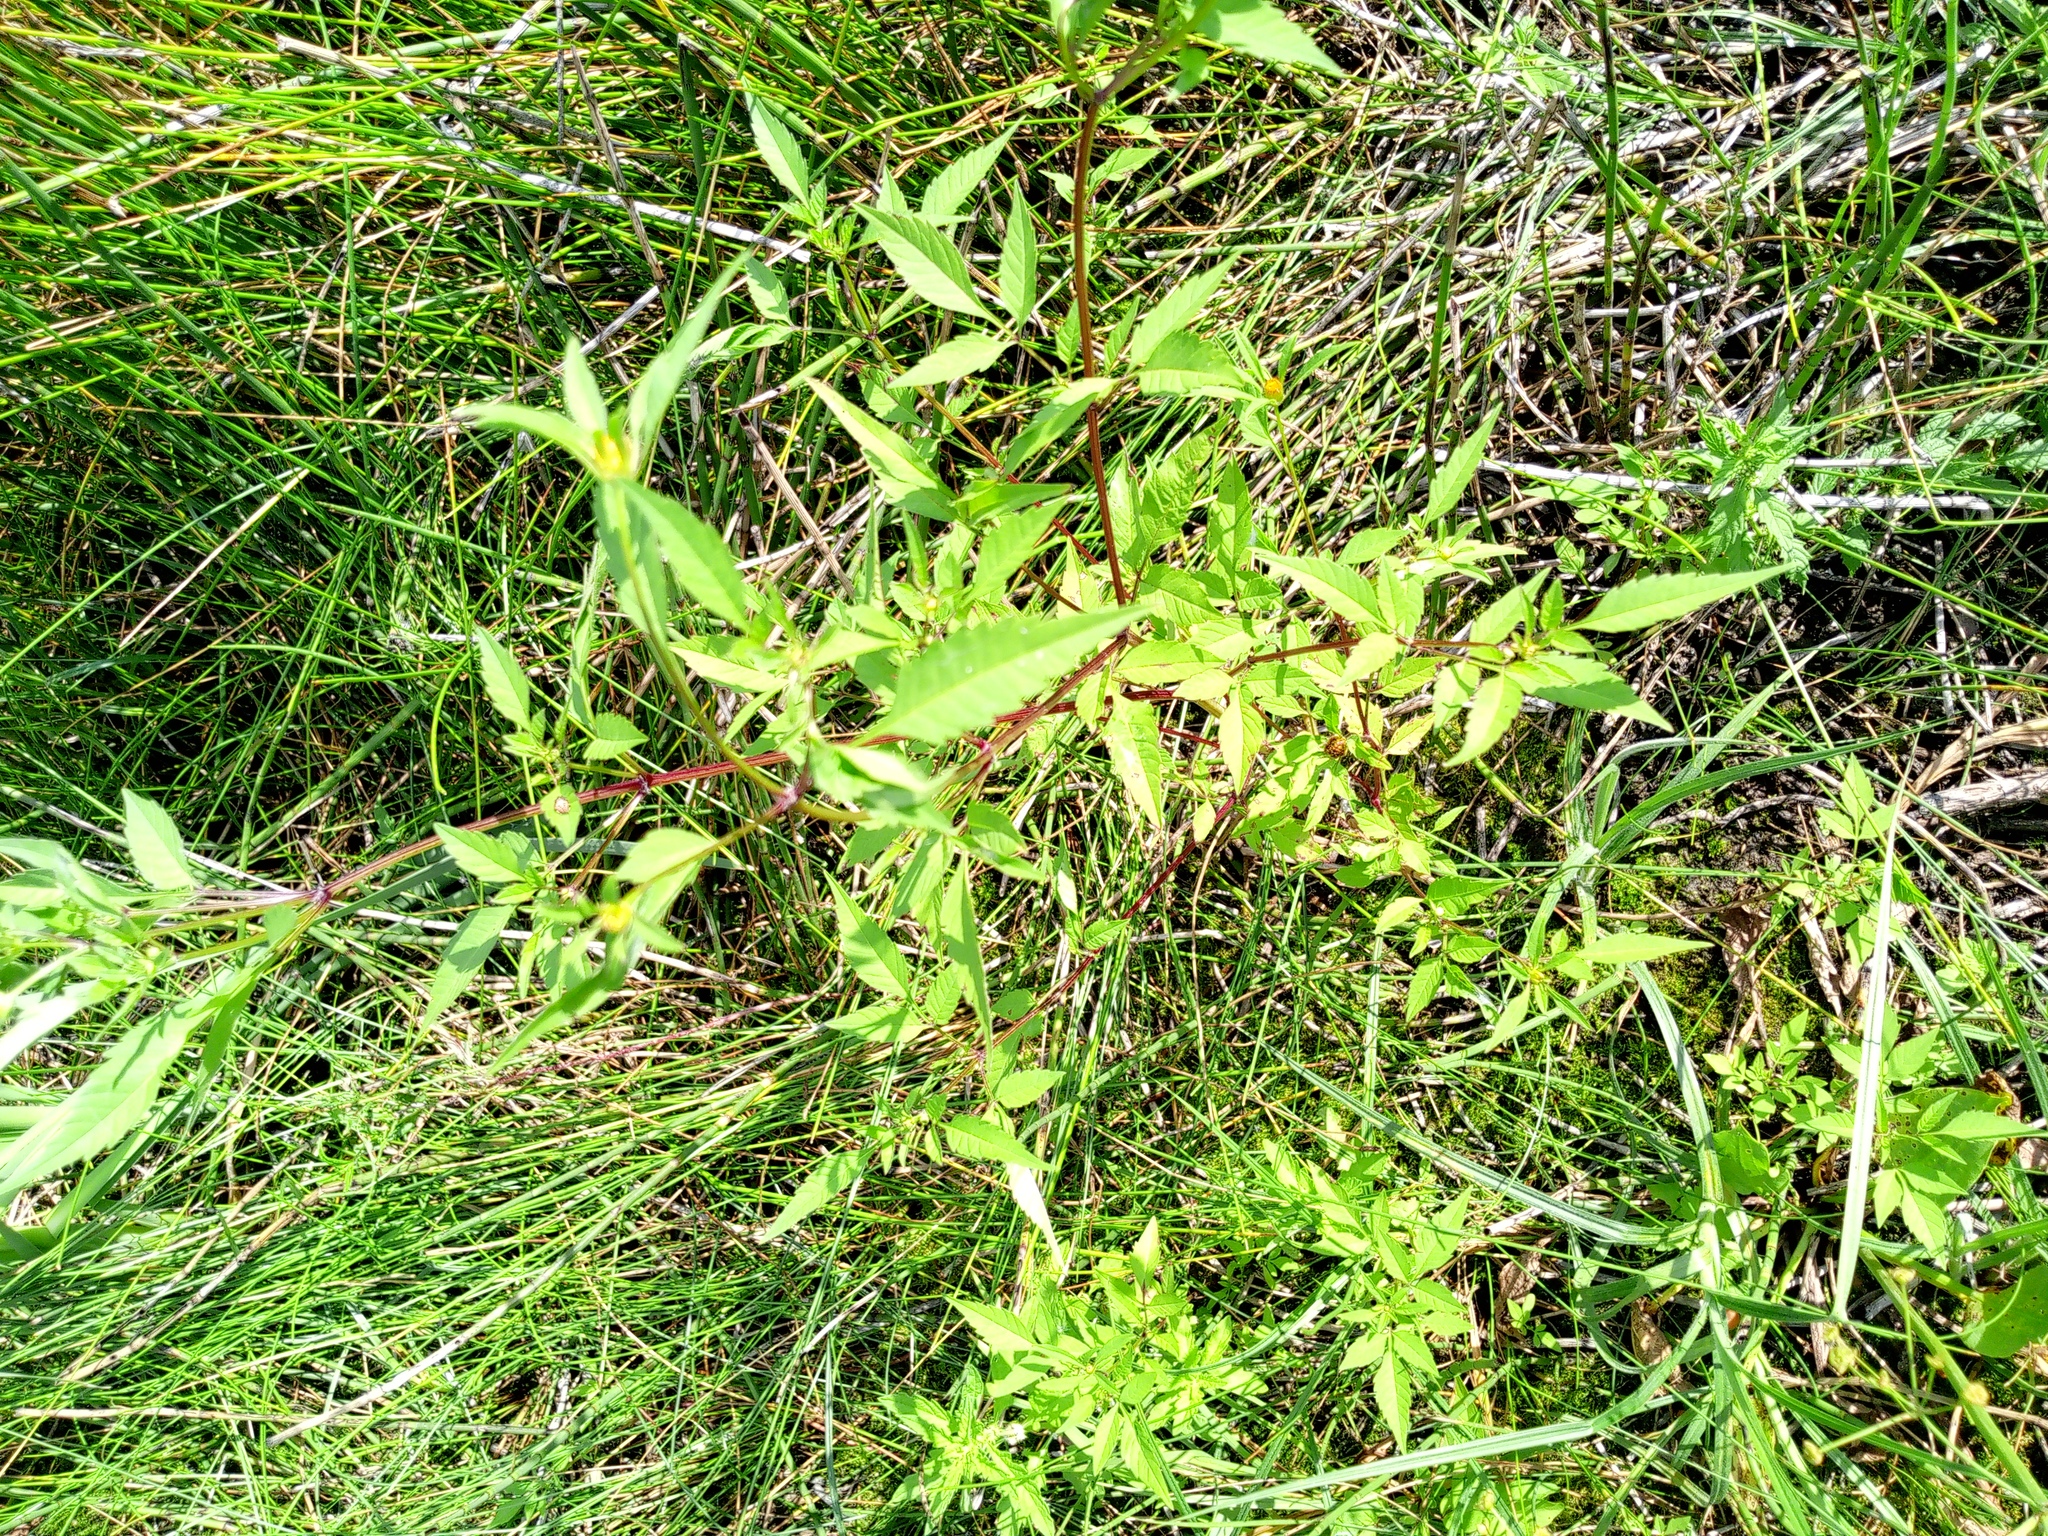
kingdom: Plantae
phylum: Tracheophyta
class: Magnoliopsida
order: Asterales
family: Asteraceae
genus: Bidens
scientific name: Bidens frondosa
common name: Beggarticks
